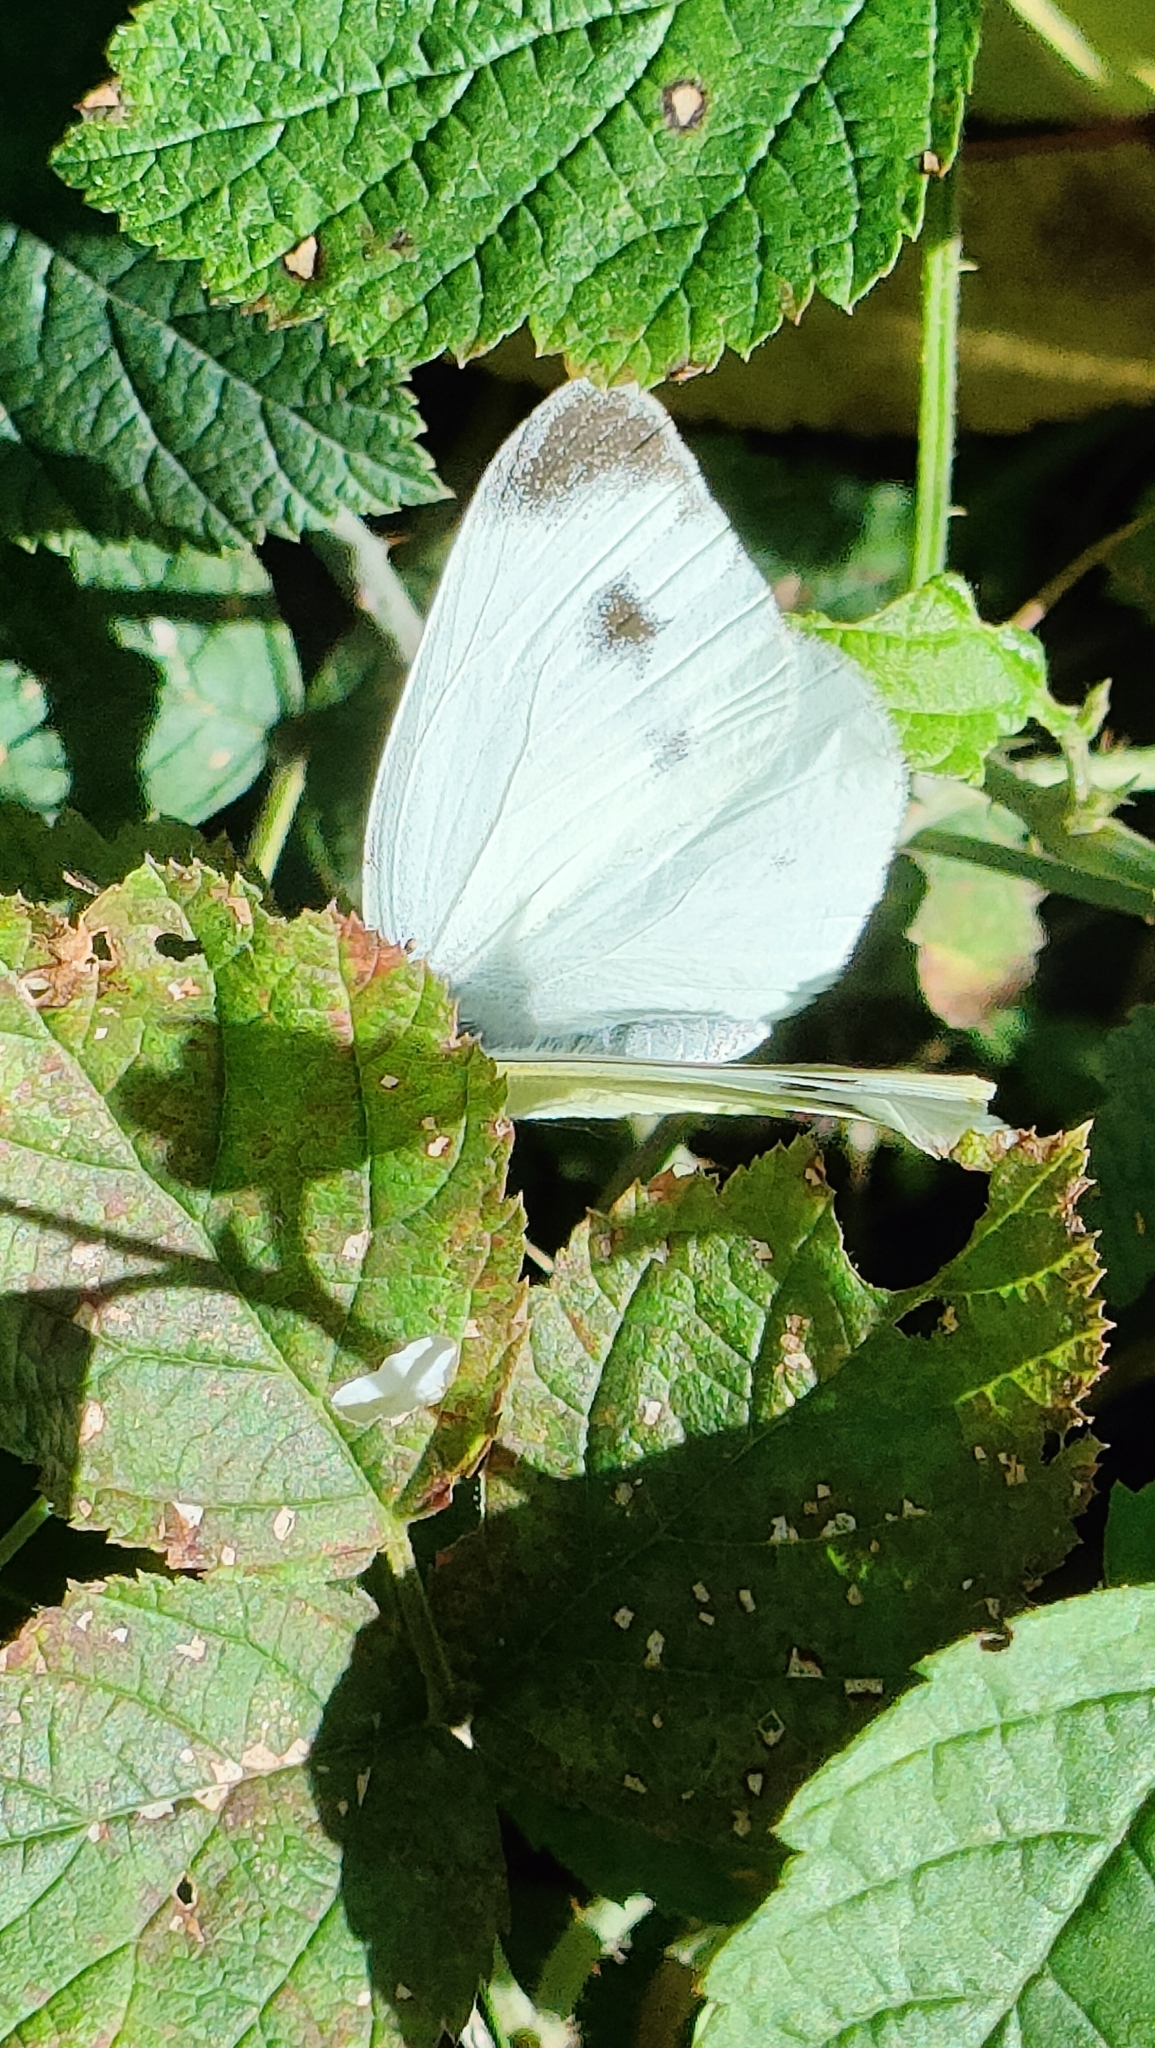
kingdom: Animalia
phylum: Arthropoda
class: Insecta
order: Lepidoptera
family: Pieridae
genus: Pieris
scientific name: Pieris mannii
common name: Southern small white
